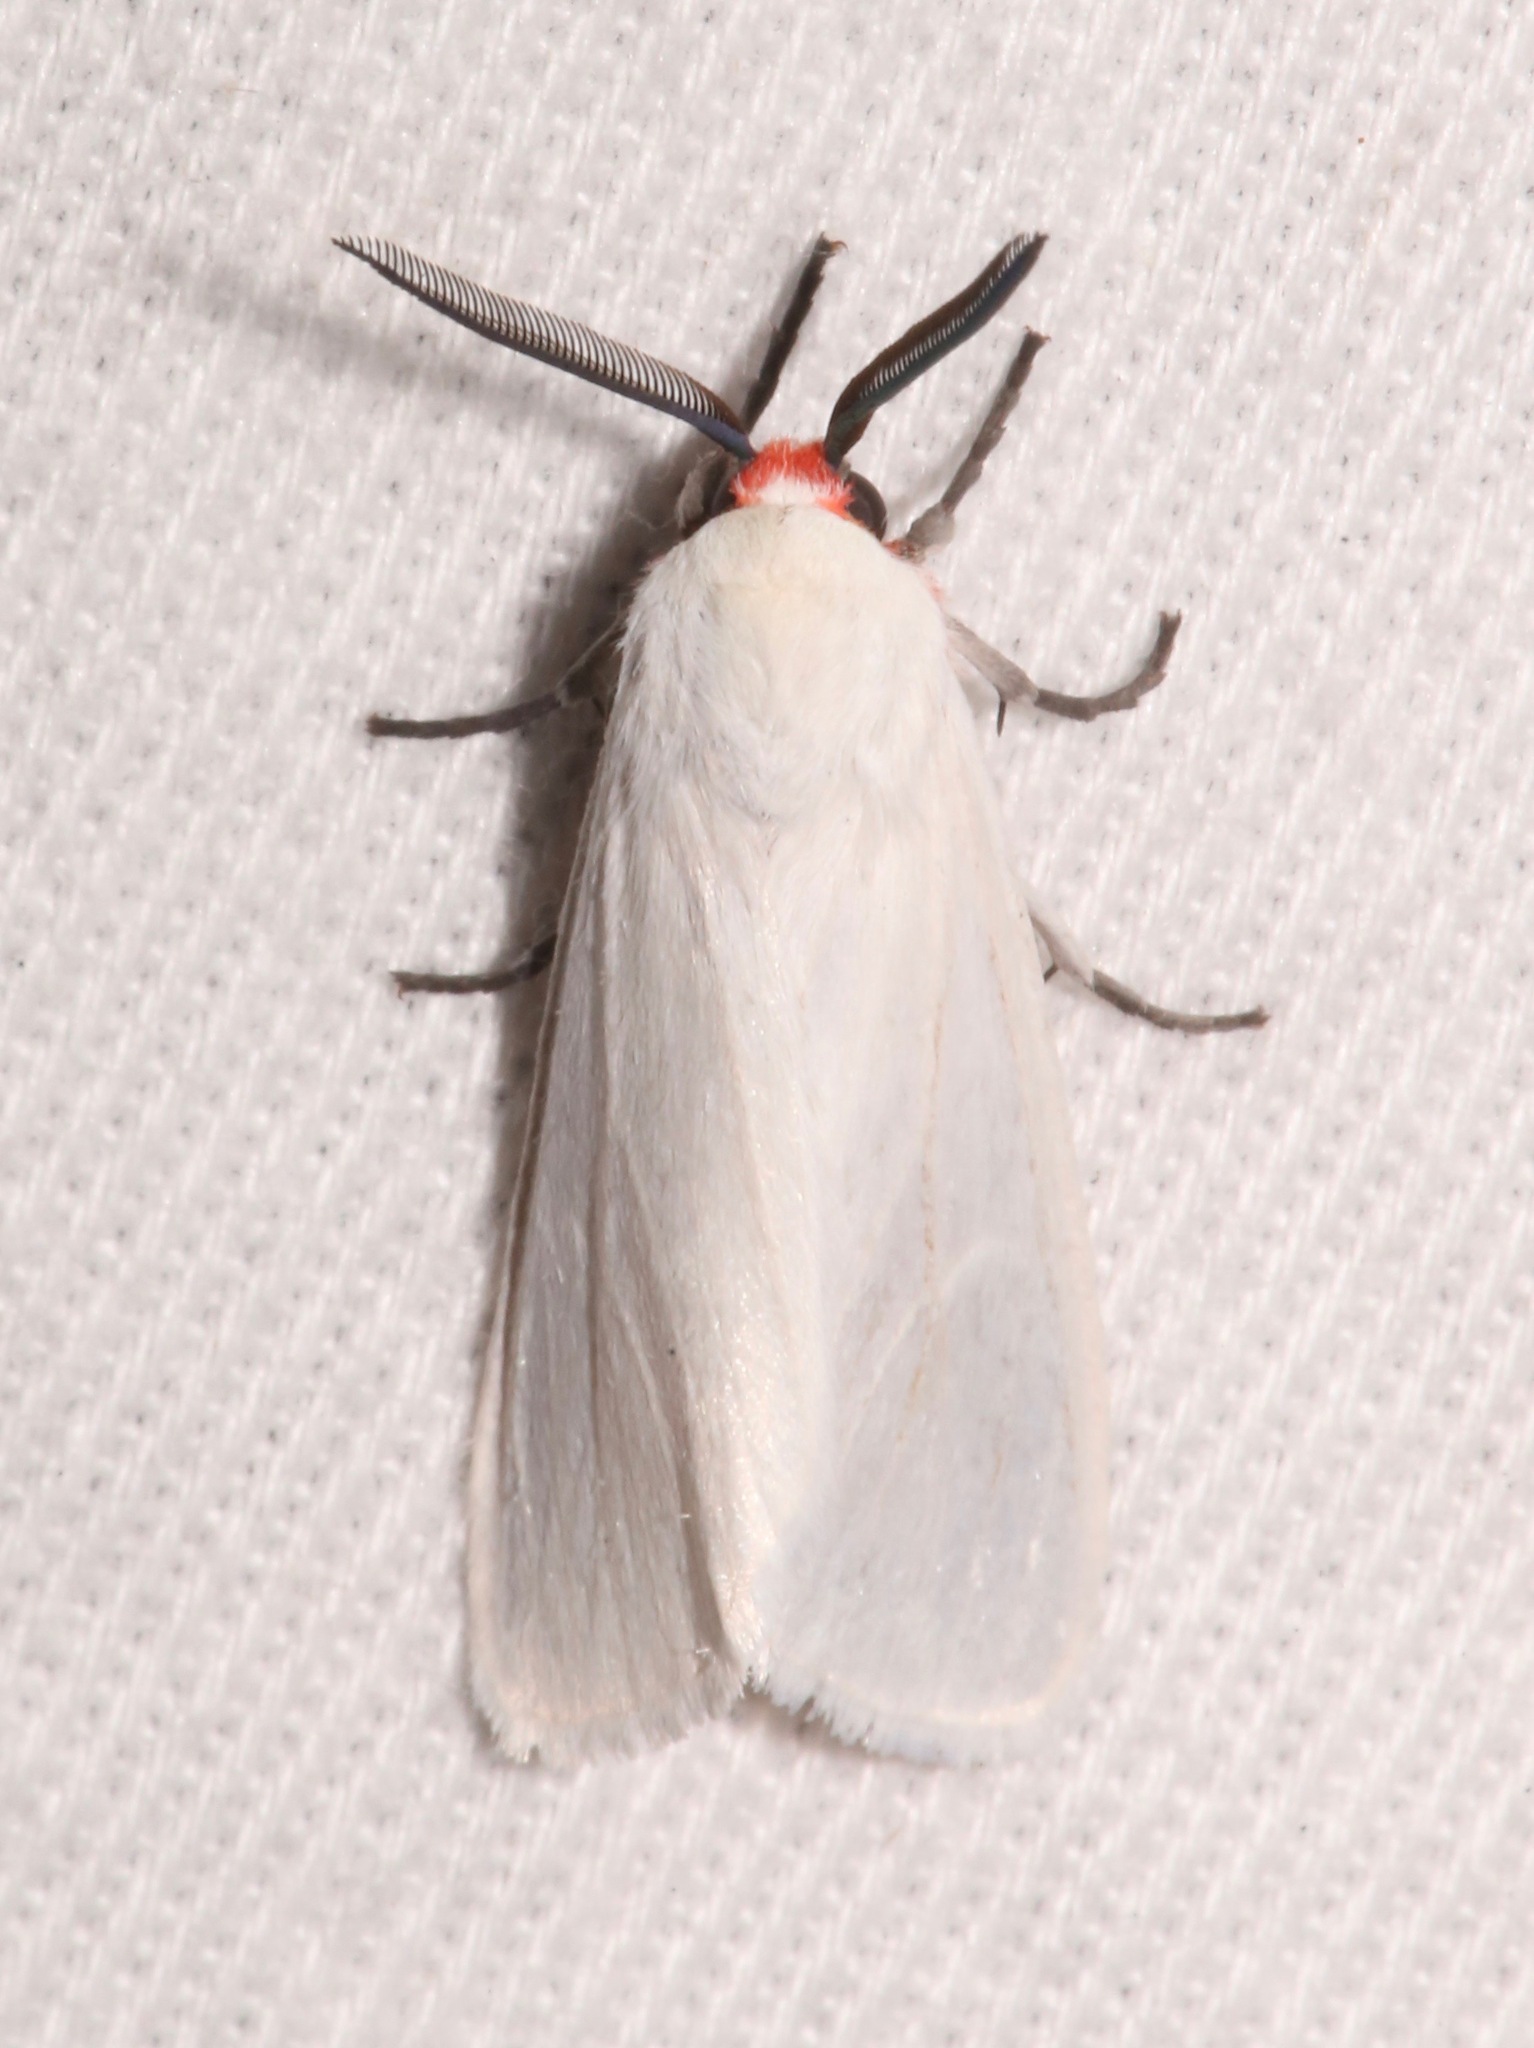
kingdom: Animalia
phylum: Arthropoda
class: Insecta
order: Lepidoptera
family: Erebidae
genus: Pygarctia
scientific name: Pygarctia roseicapitis
